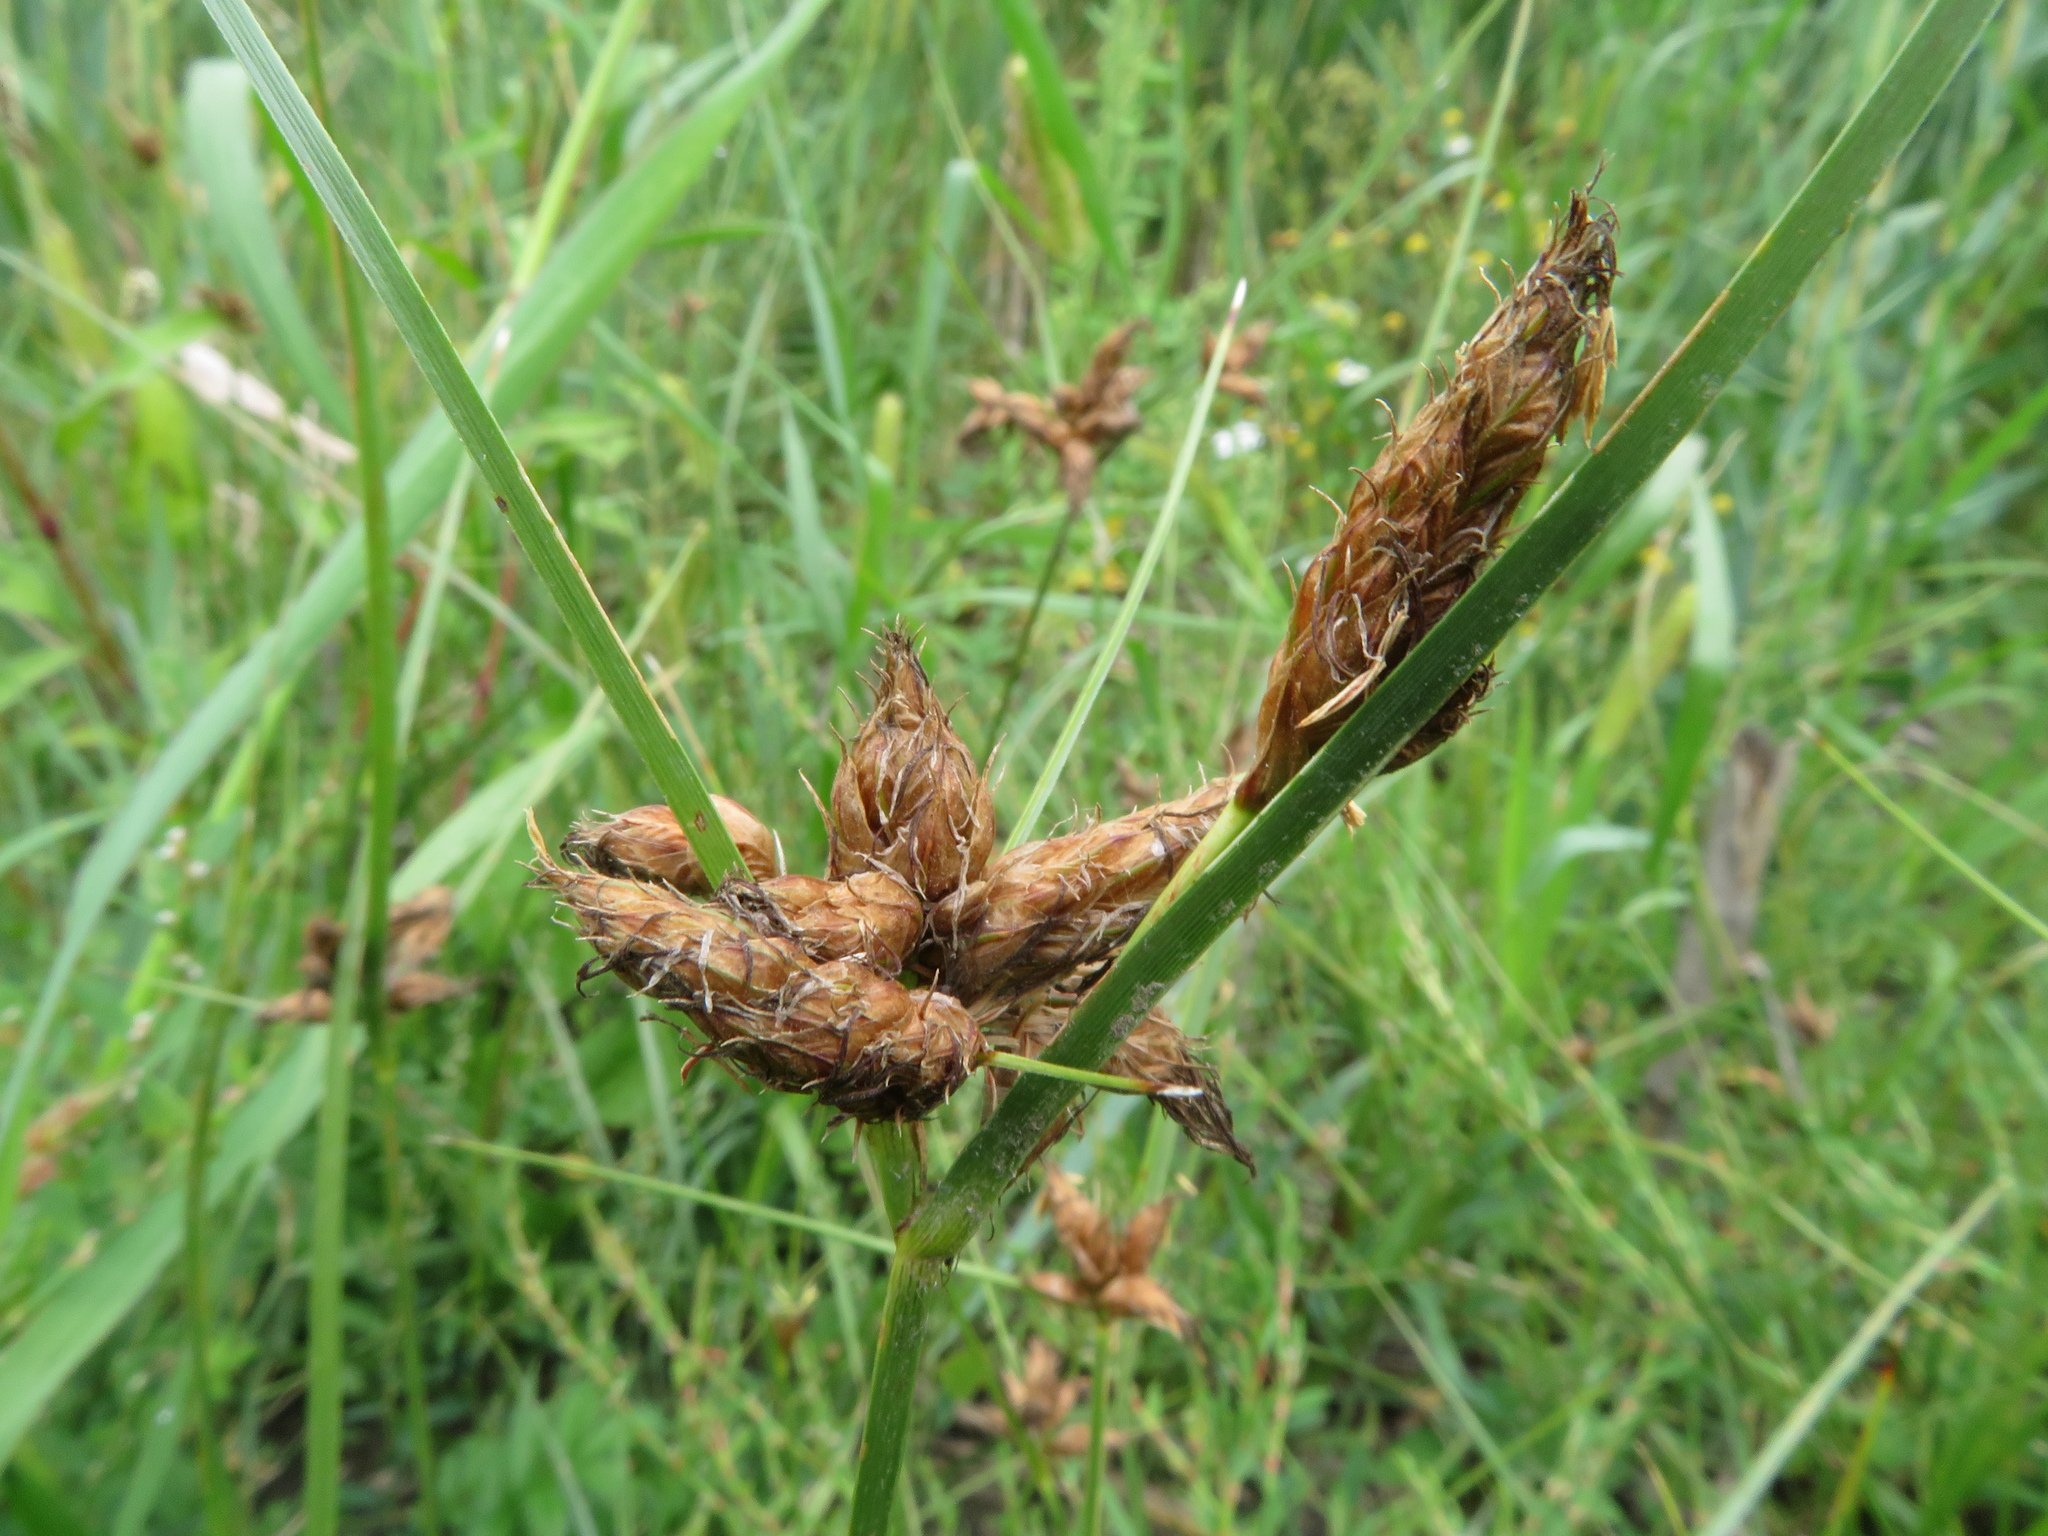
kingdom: Plantae
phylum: Tracheophyta
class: Liliopsida
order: Poales
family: Cyperaceae
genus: Bolboschoenus
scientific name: Bolboschoenus maritimus
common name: Sea club-rush
